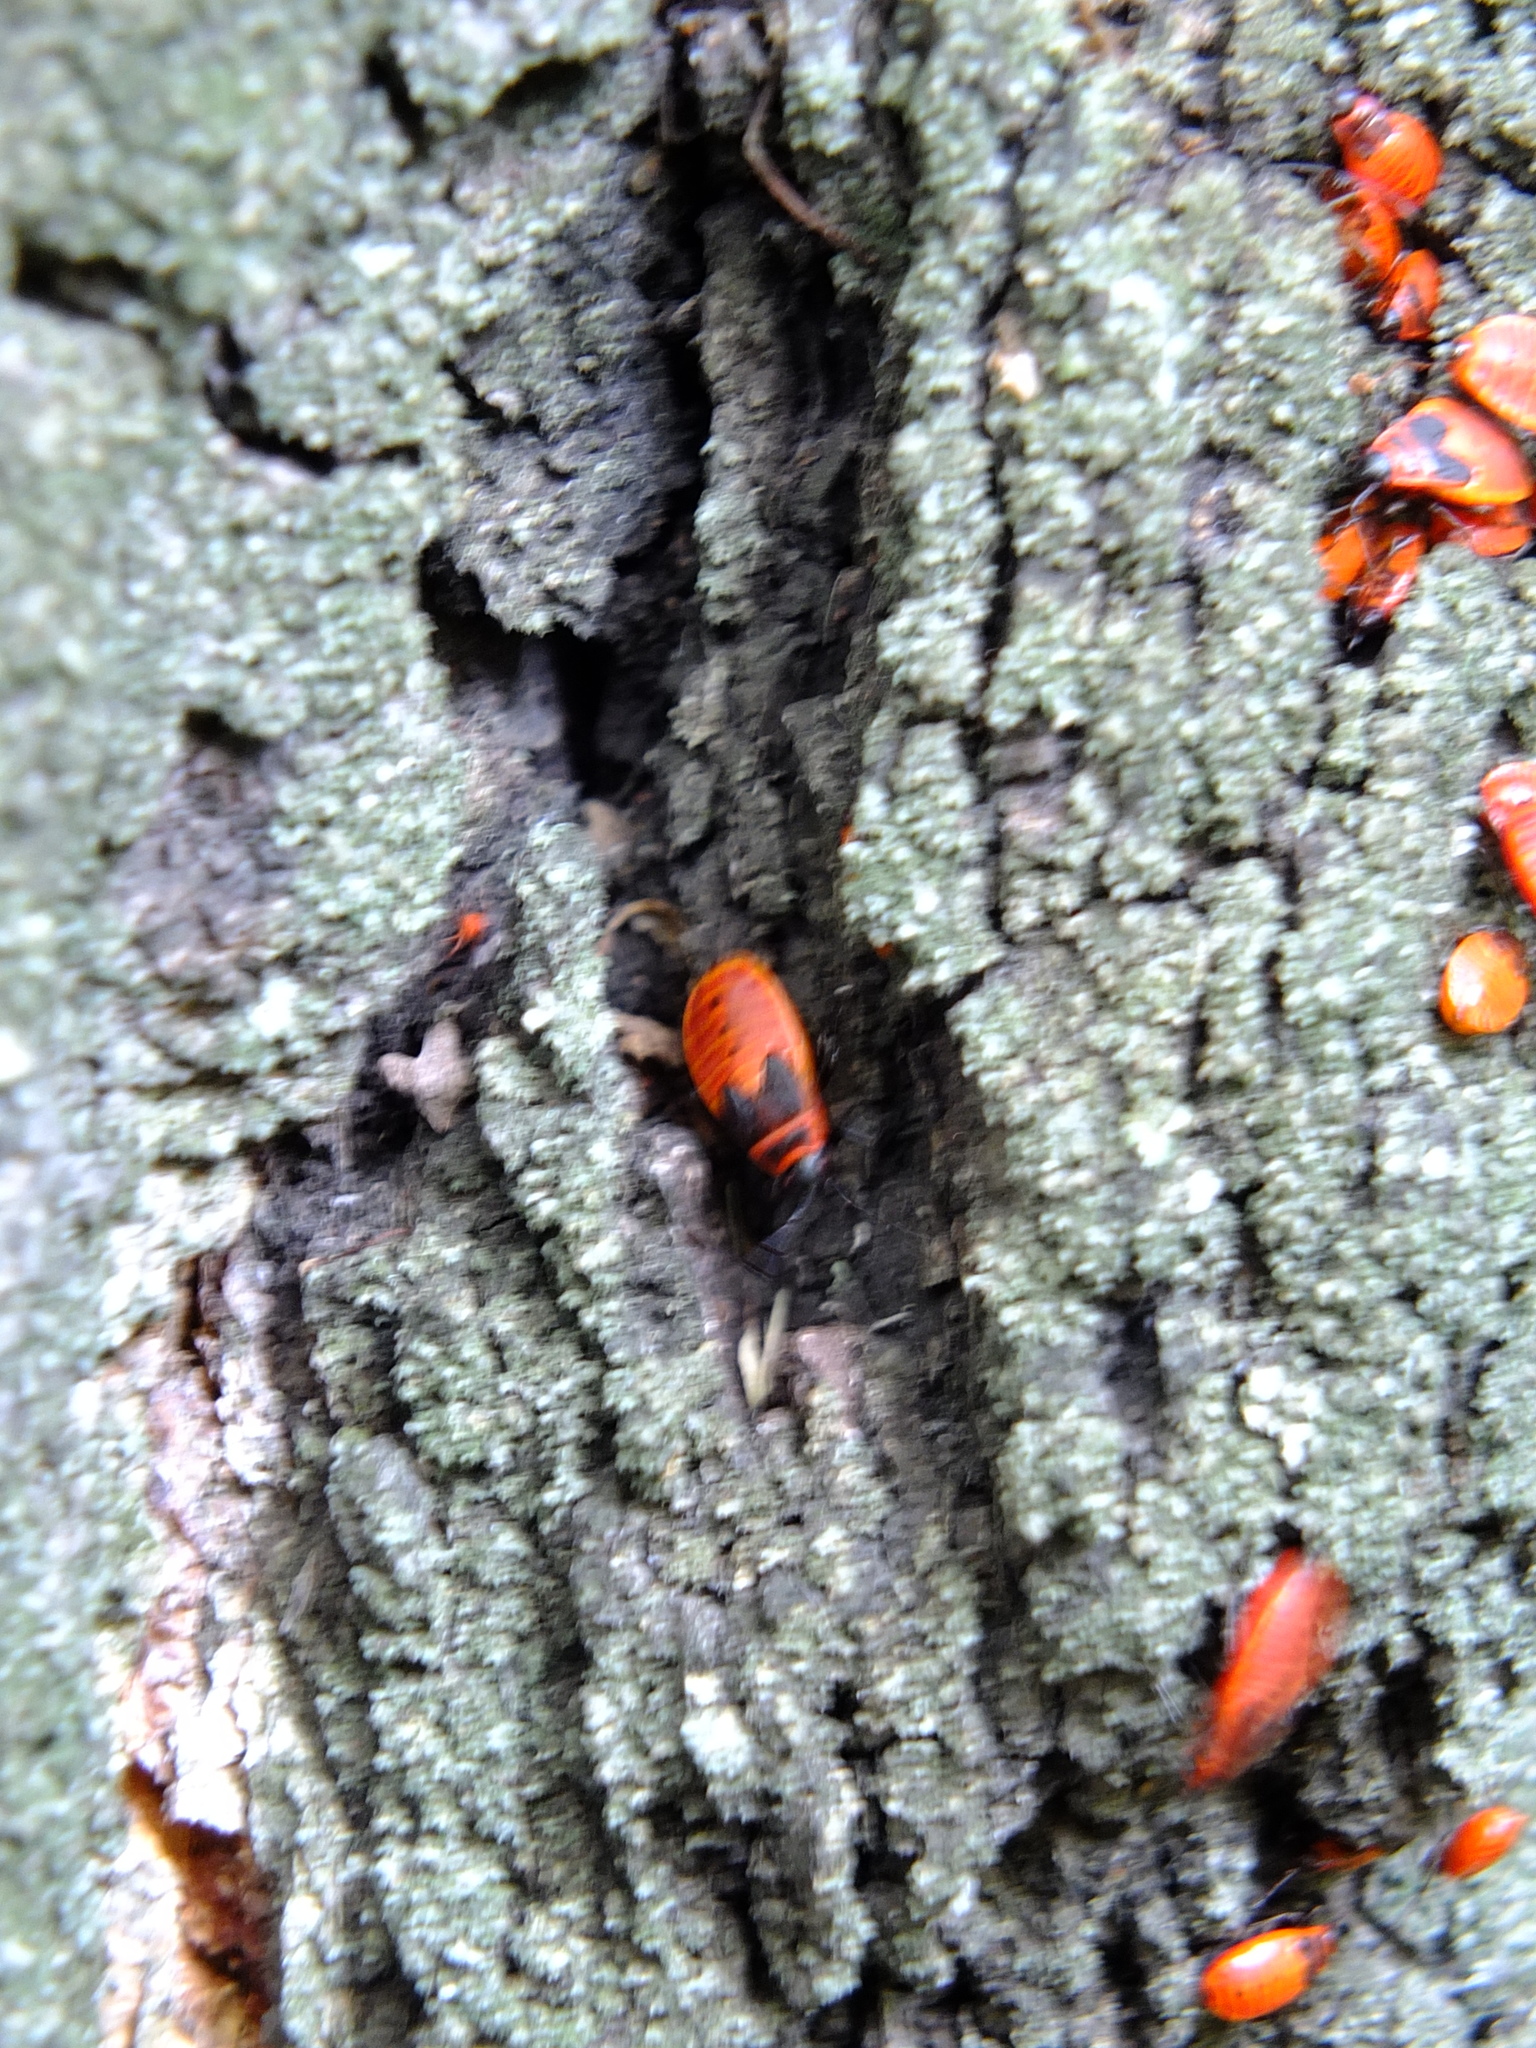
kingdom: Animalia
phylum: Arthropoda
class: Insecta
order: Hemiptera
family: Pyrrhocoridae
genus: Pyrrhocoris
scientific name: Pyrrhocoris apterus
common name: Firebug
